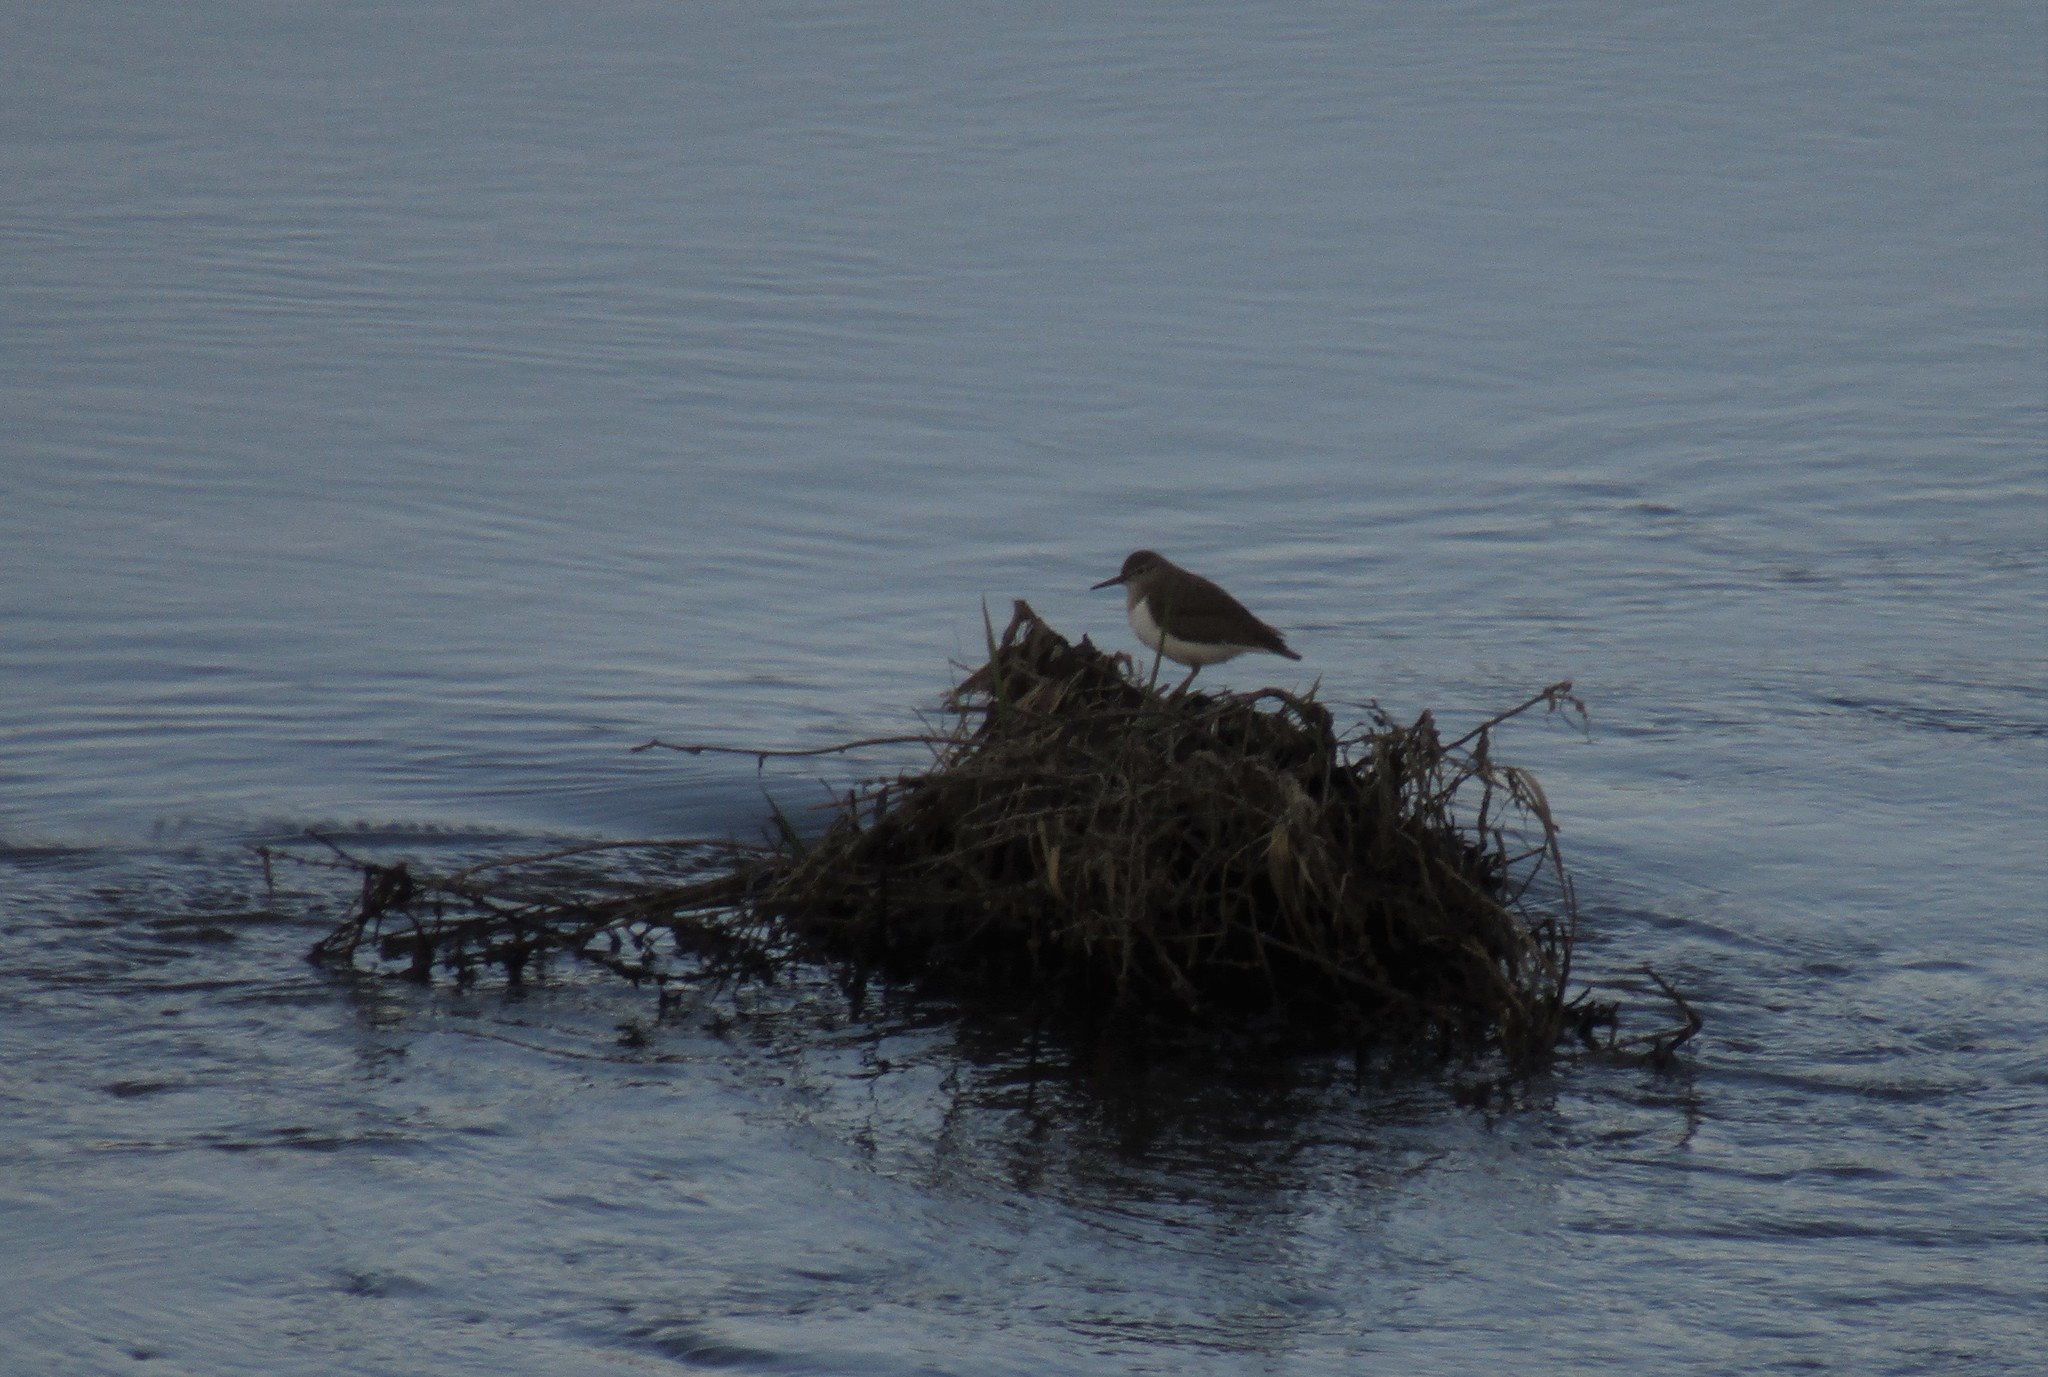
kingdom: Animalia
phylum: Chordata
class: Aves
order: Charadriiformes
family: Scolopacidae
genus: Actitis
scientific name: Actitis hypoleucos
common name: Common sandpiper
